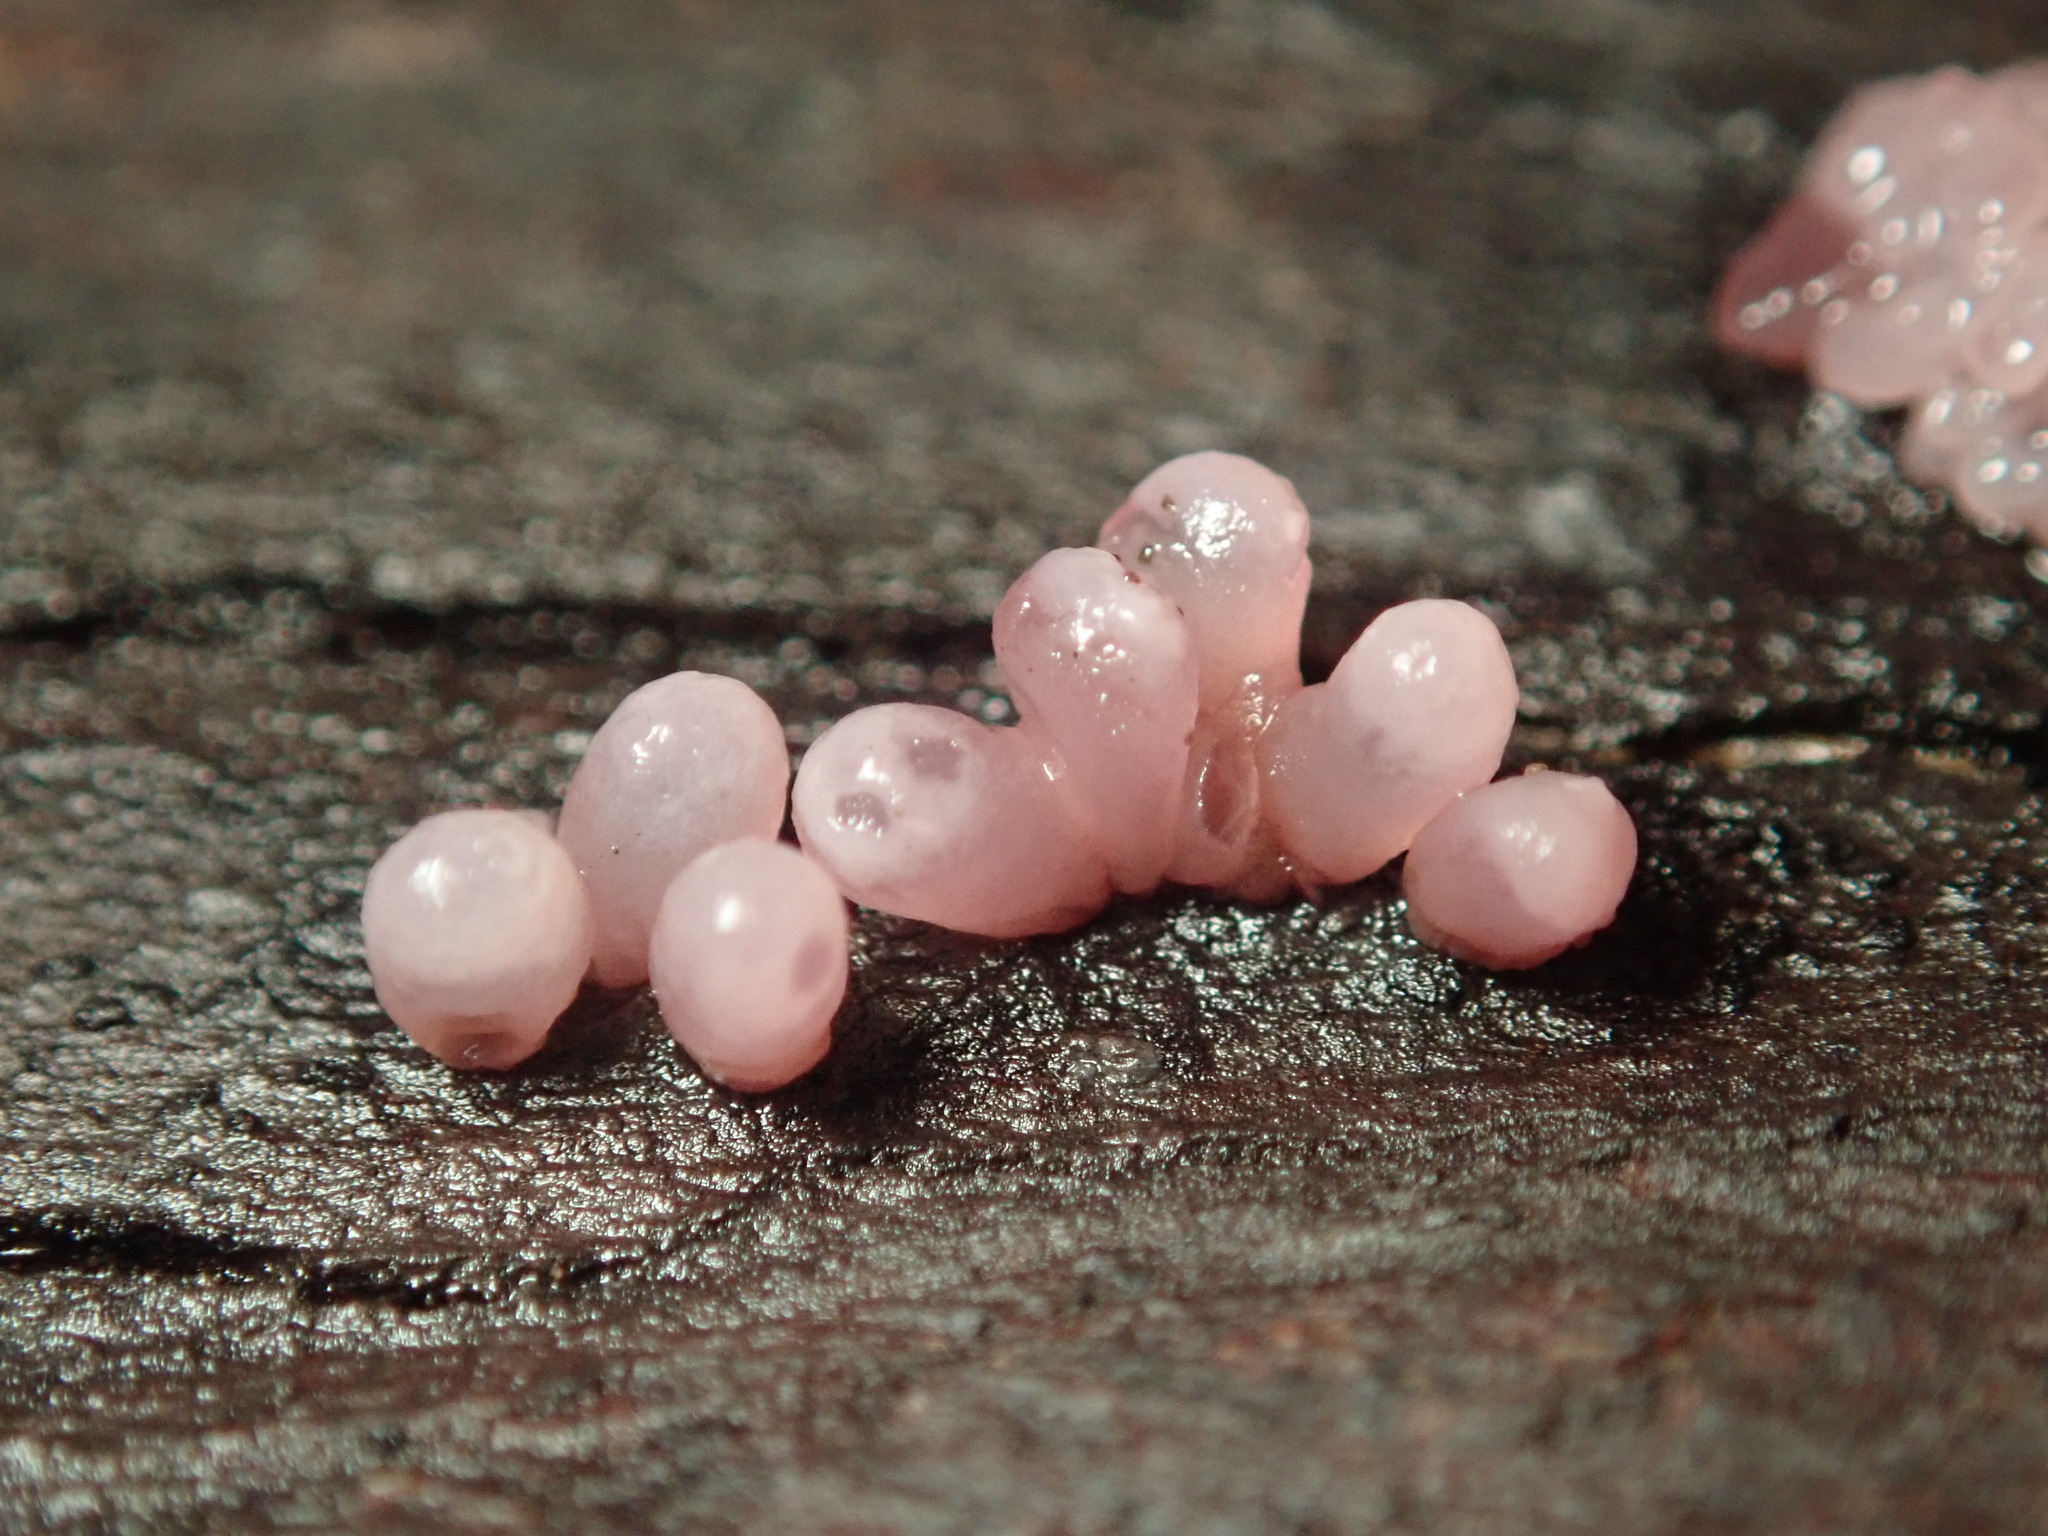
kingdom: Fungi
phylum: Ascomycota
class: Leotiomycetes
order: Helotiales
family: Gelatinodiscaceae
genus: Ascocoryne
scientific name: Ascocoryne sarcoides
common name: Purple jellydisc
